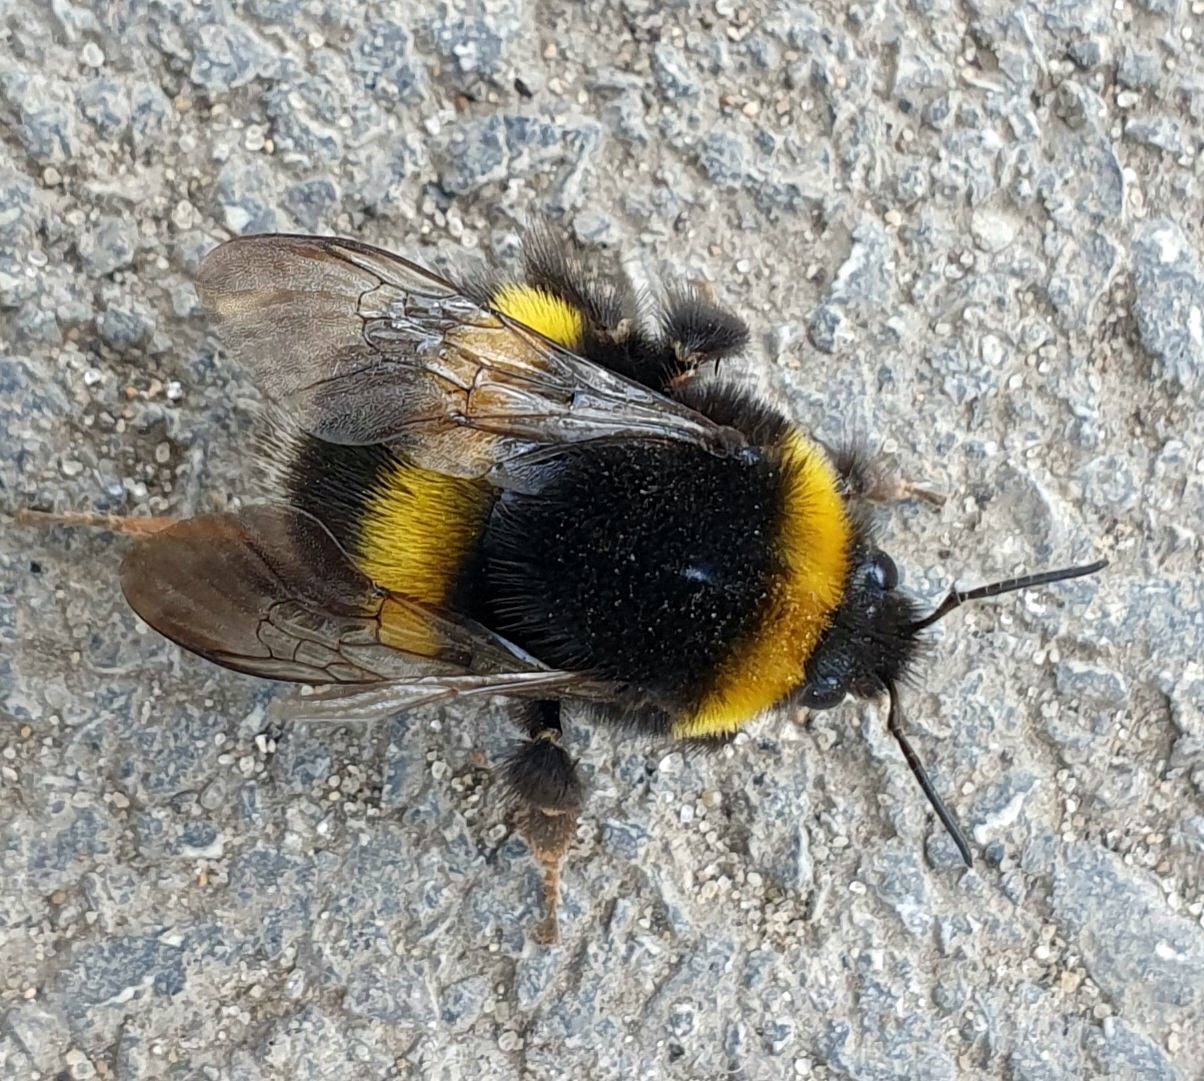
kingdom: Animalia
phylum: Arthropoda
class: Insecta
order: Hymenoptera
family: Apidae
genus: Bombus
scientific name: Bombus
